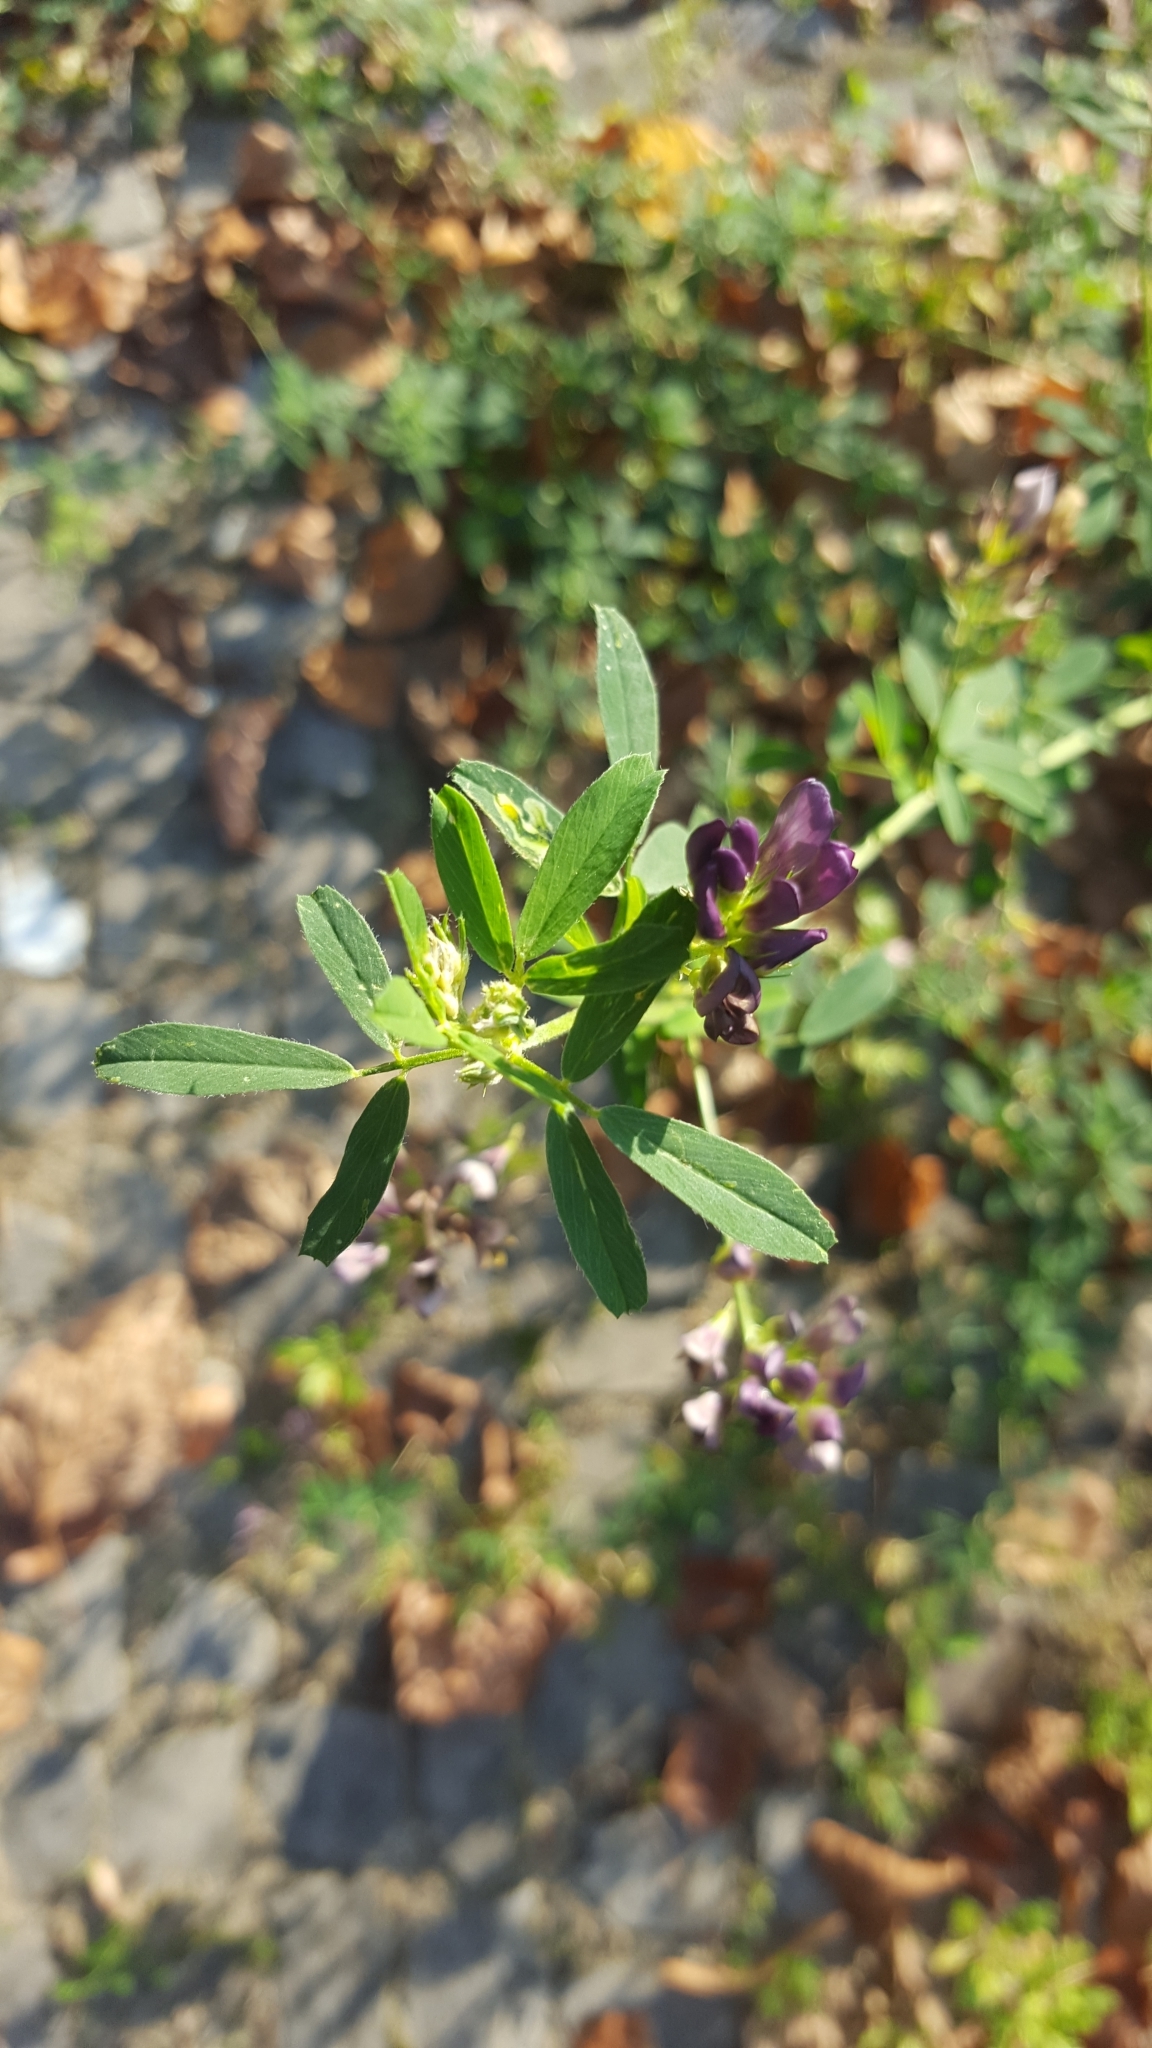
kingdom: Plantae
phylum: Tracheophyta
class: Magnoliopsida
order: Fabales
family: Fabaceae
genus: Medicago
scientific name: Medicago varia
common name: Sand lucerne
